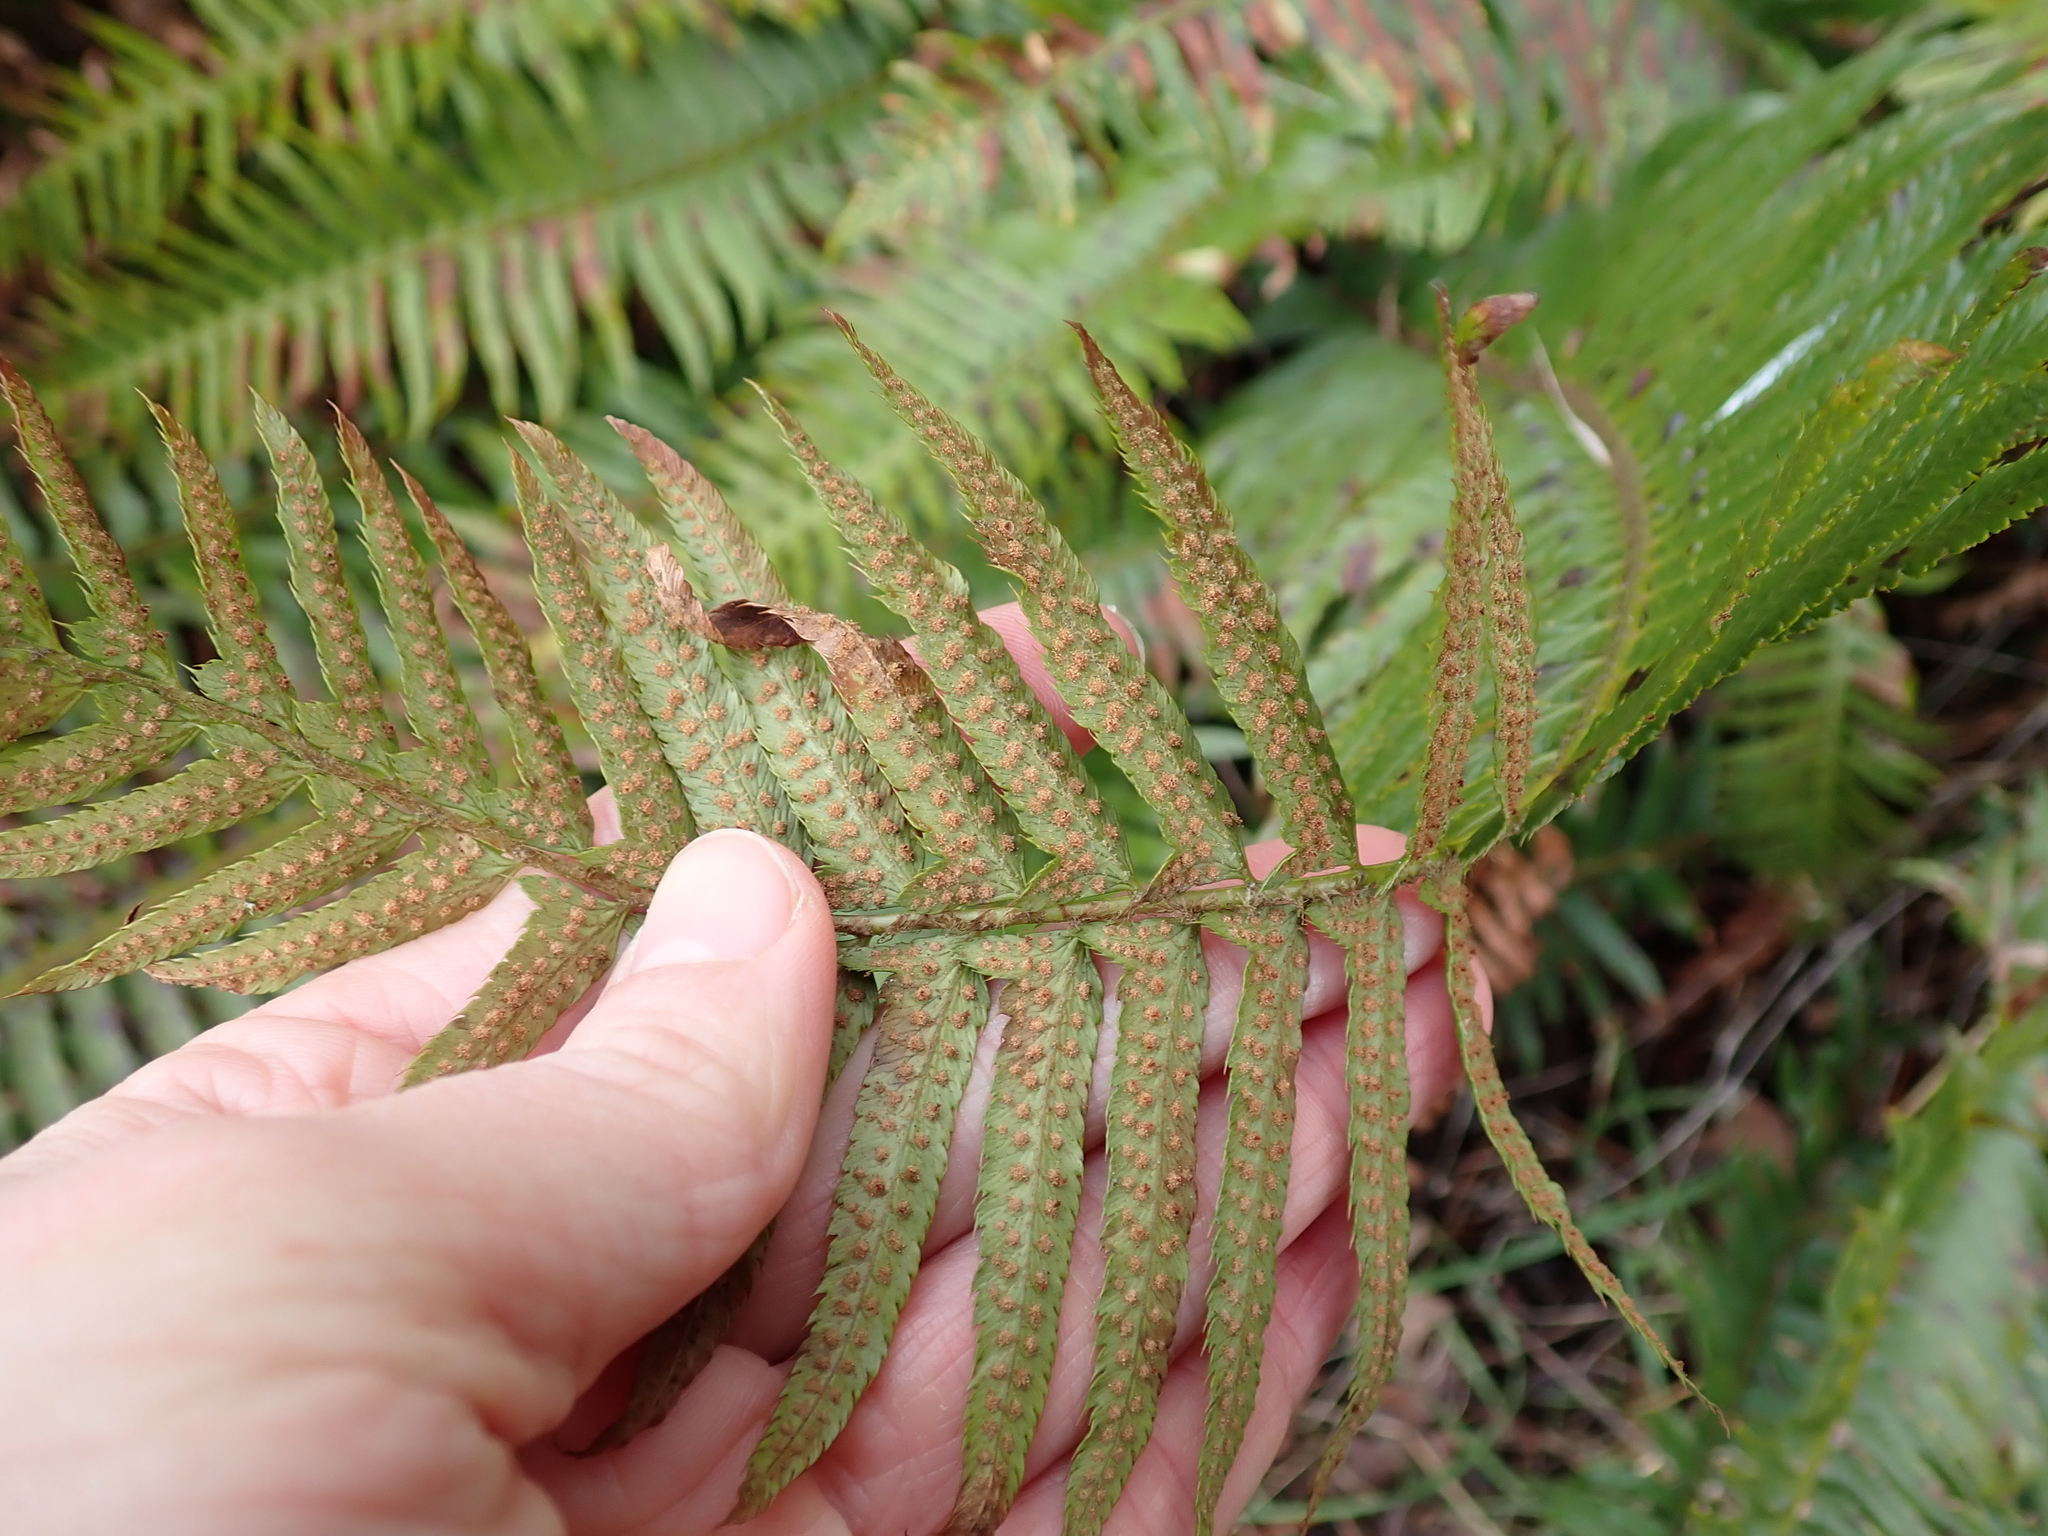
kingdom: Plantae
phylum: Tracheophyta
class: Polypodiopsida
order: Polypodiales
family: Dryopteridaceae
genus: Polystichum
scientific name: Polystichum munitum
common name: Western sword-fern
